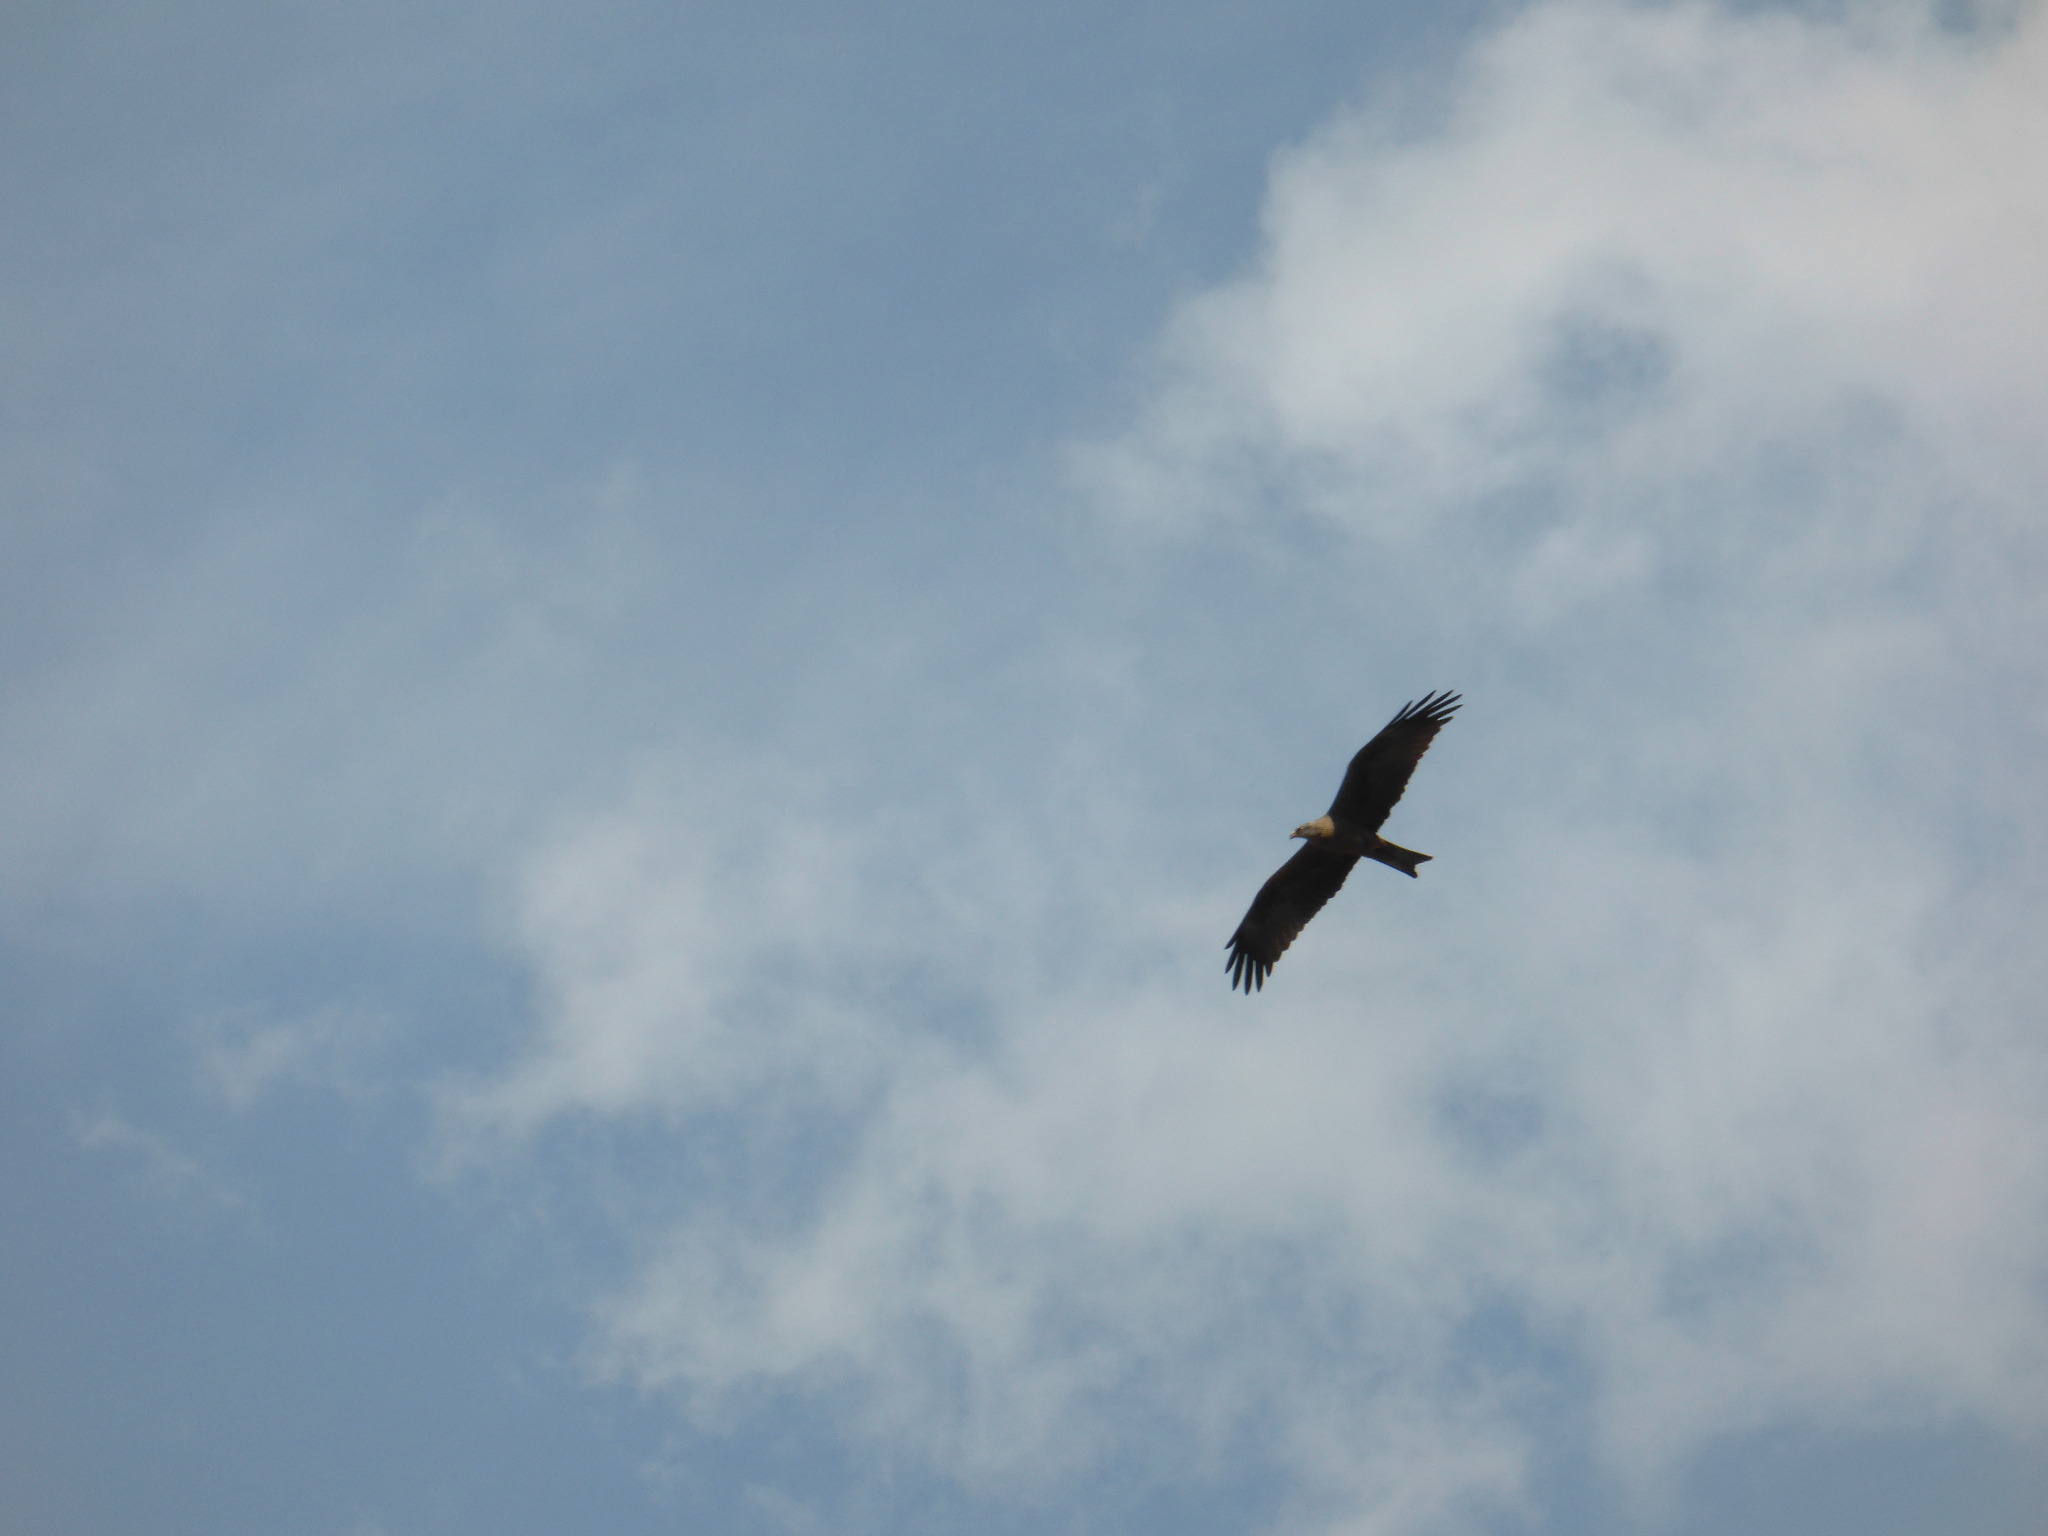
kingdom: Animalia
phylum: Chordata
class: Aves
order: Accipitriformes
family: Accipitridae
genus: Milvus
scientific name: Milvus migrans
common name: Black kite
